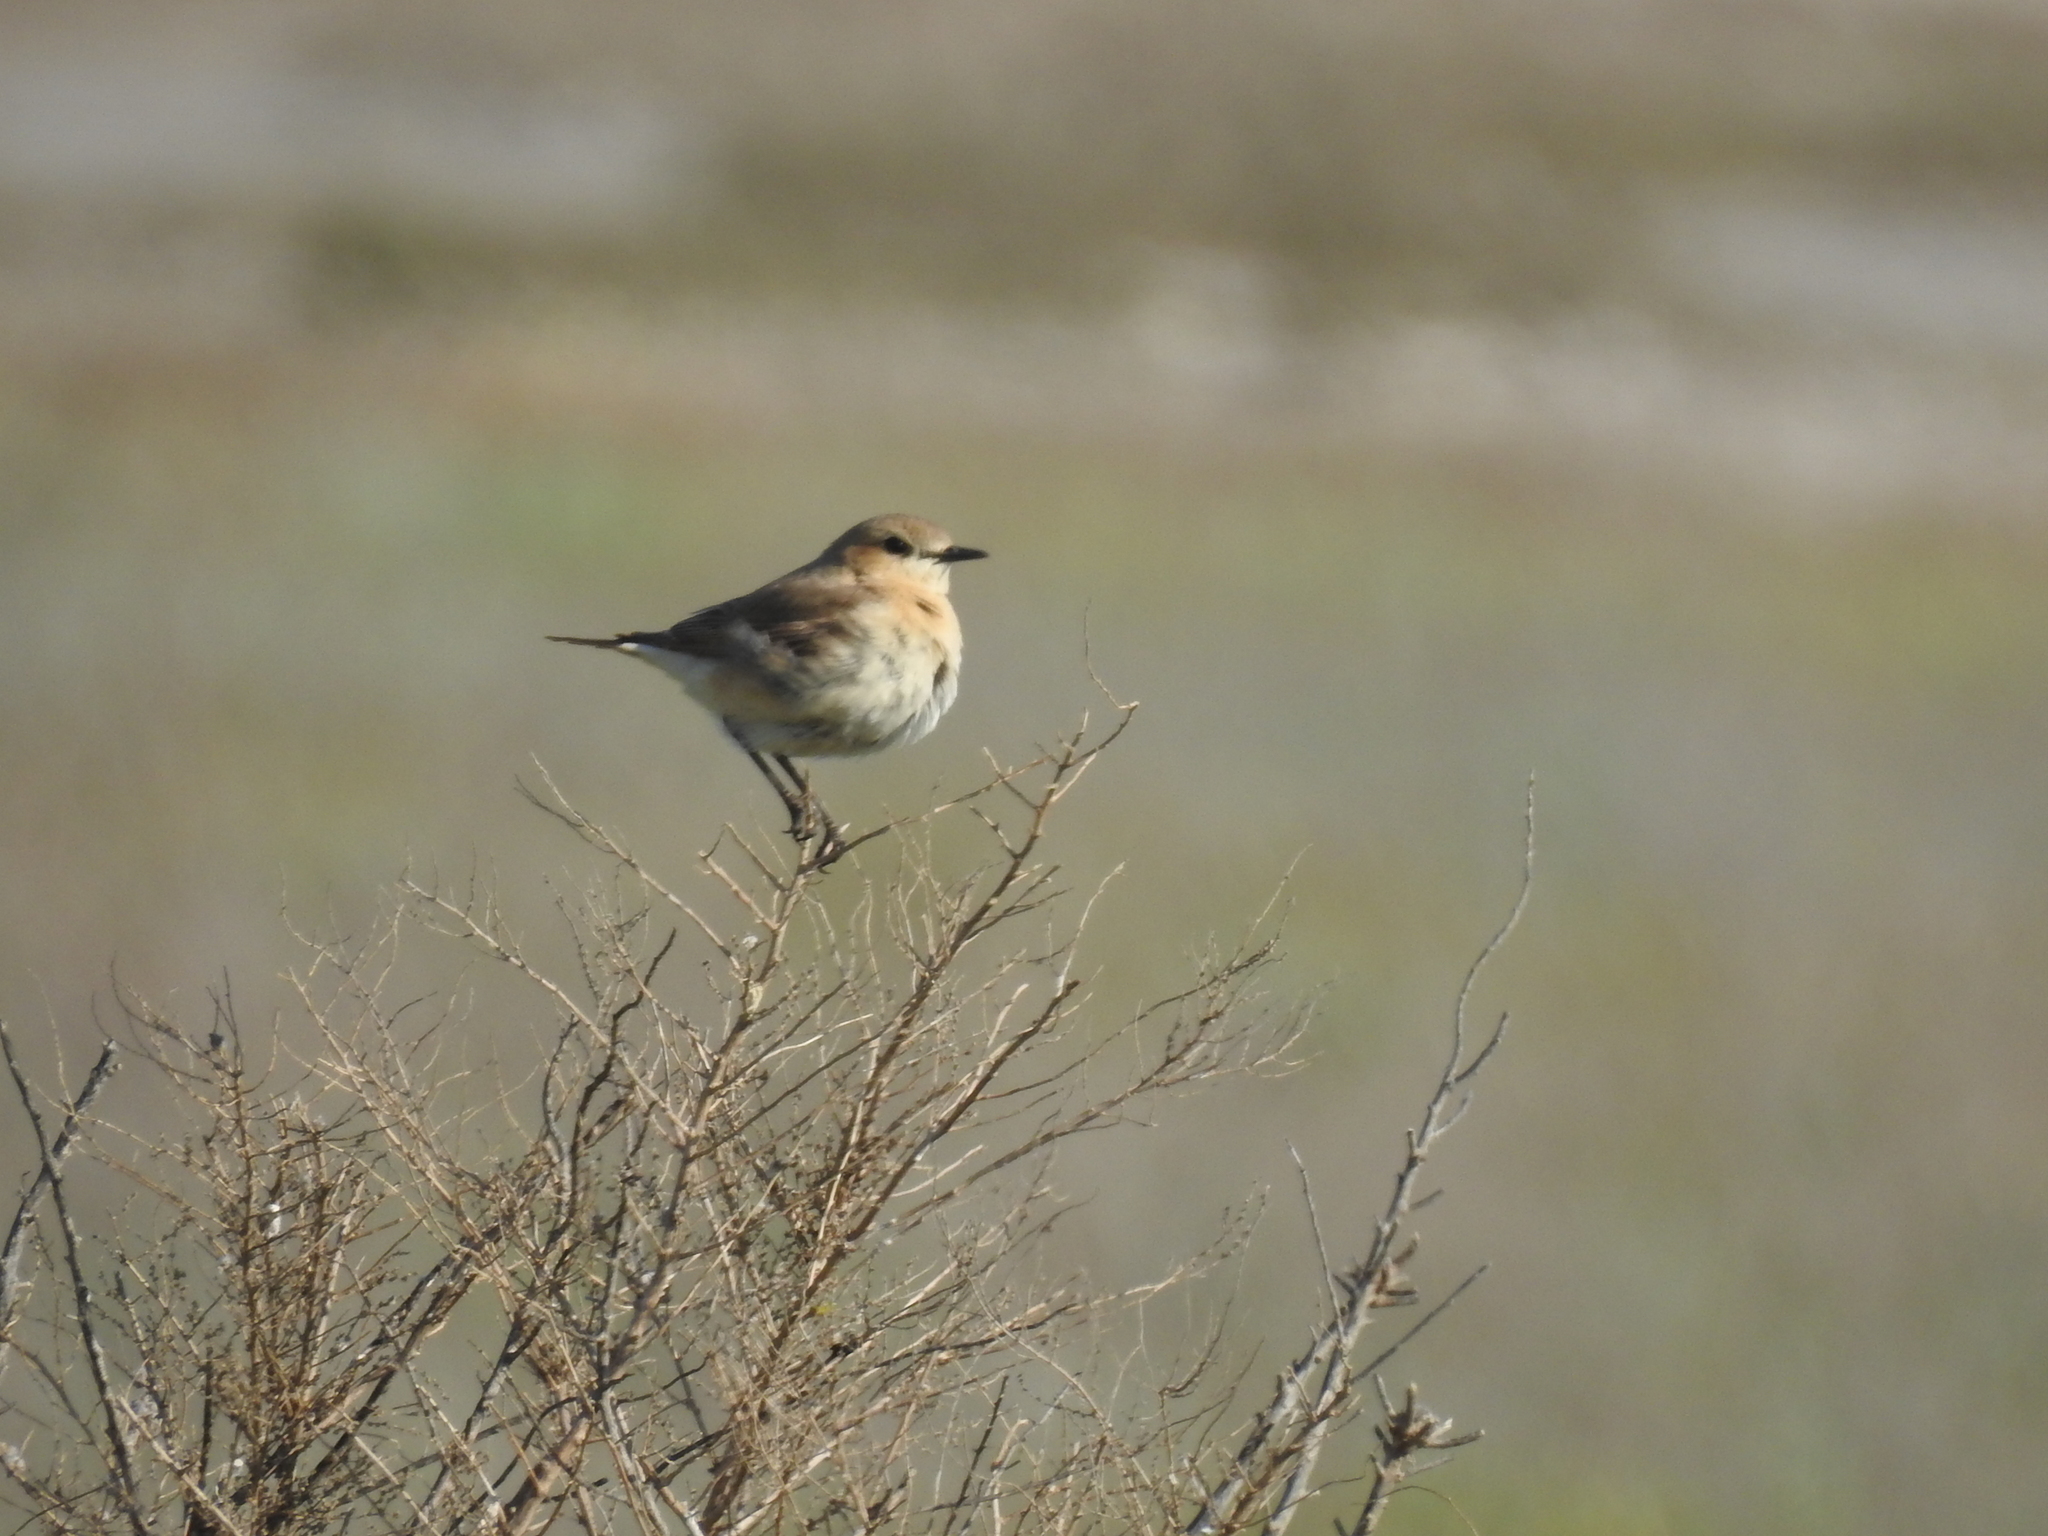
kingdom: Animalia
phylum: Chordata
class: Aves
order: Passeriformes
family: Muscicapidae
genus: Oenanthe
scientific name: Oenanthe isabellina
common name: Isabelline wheatear
